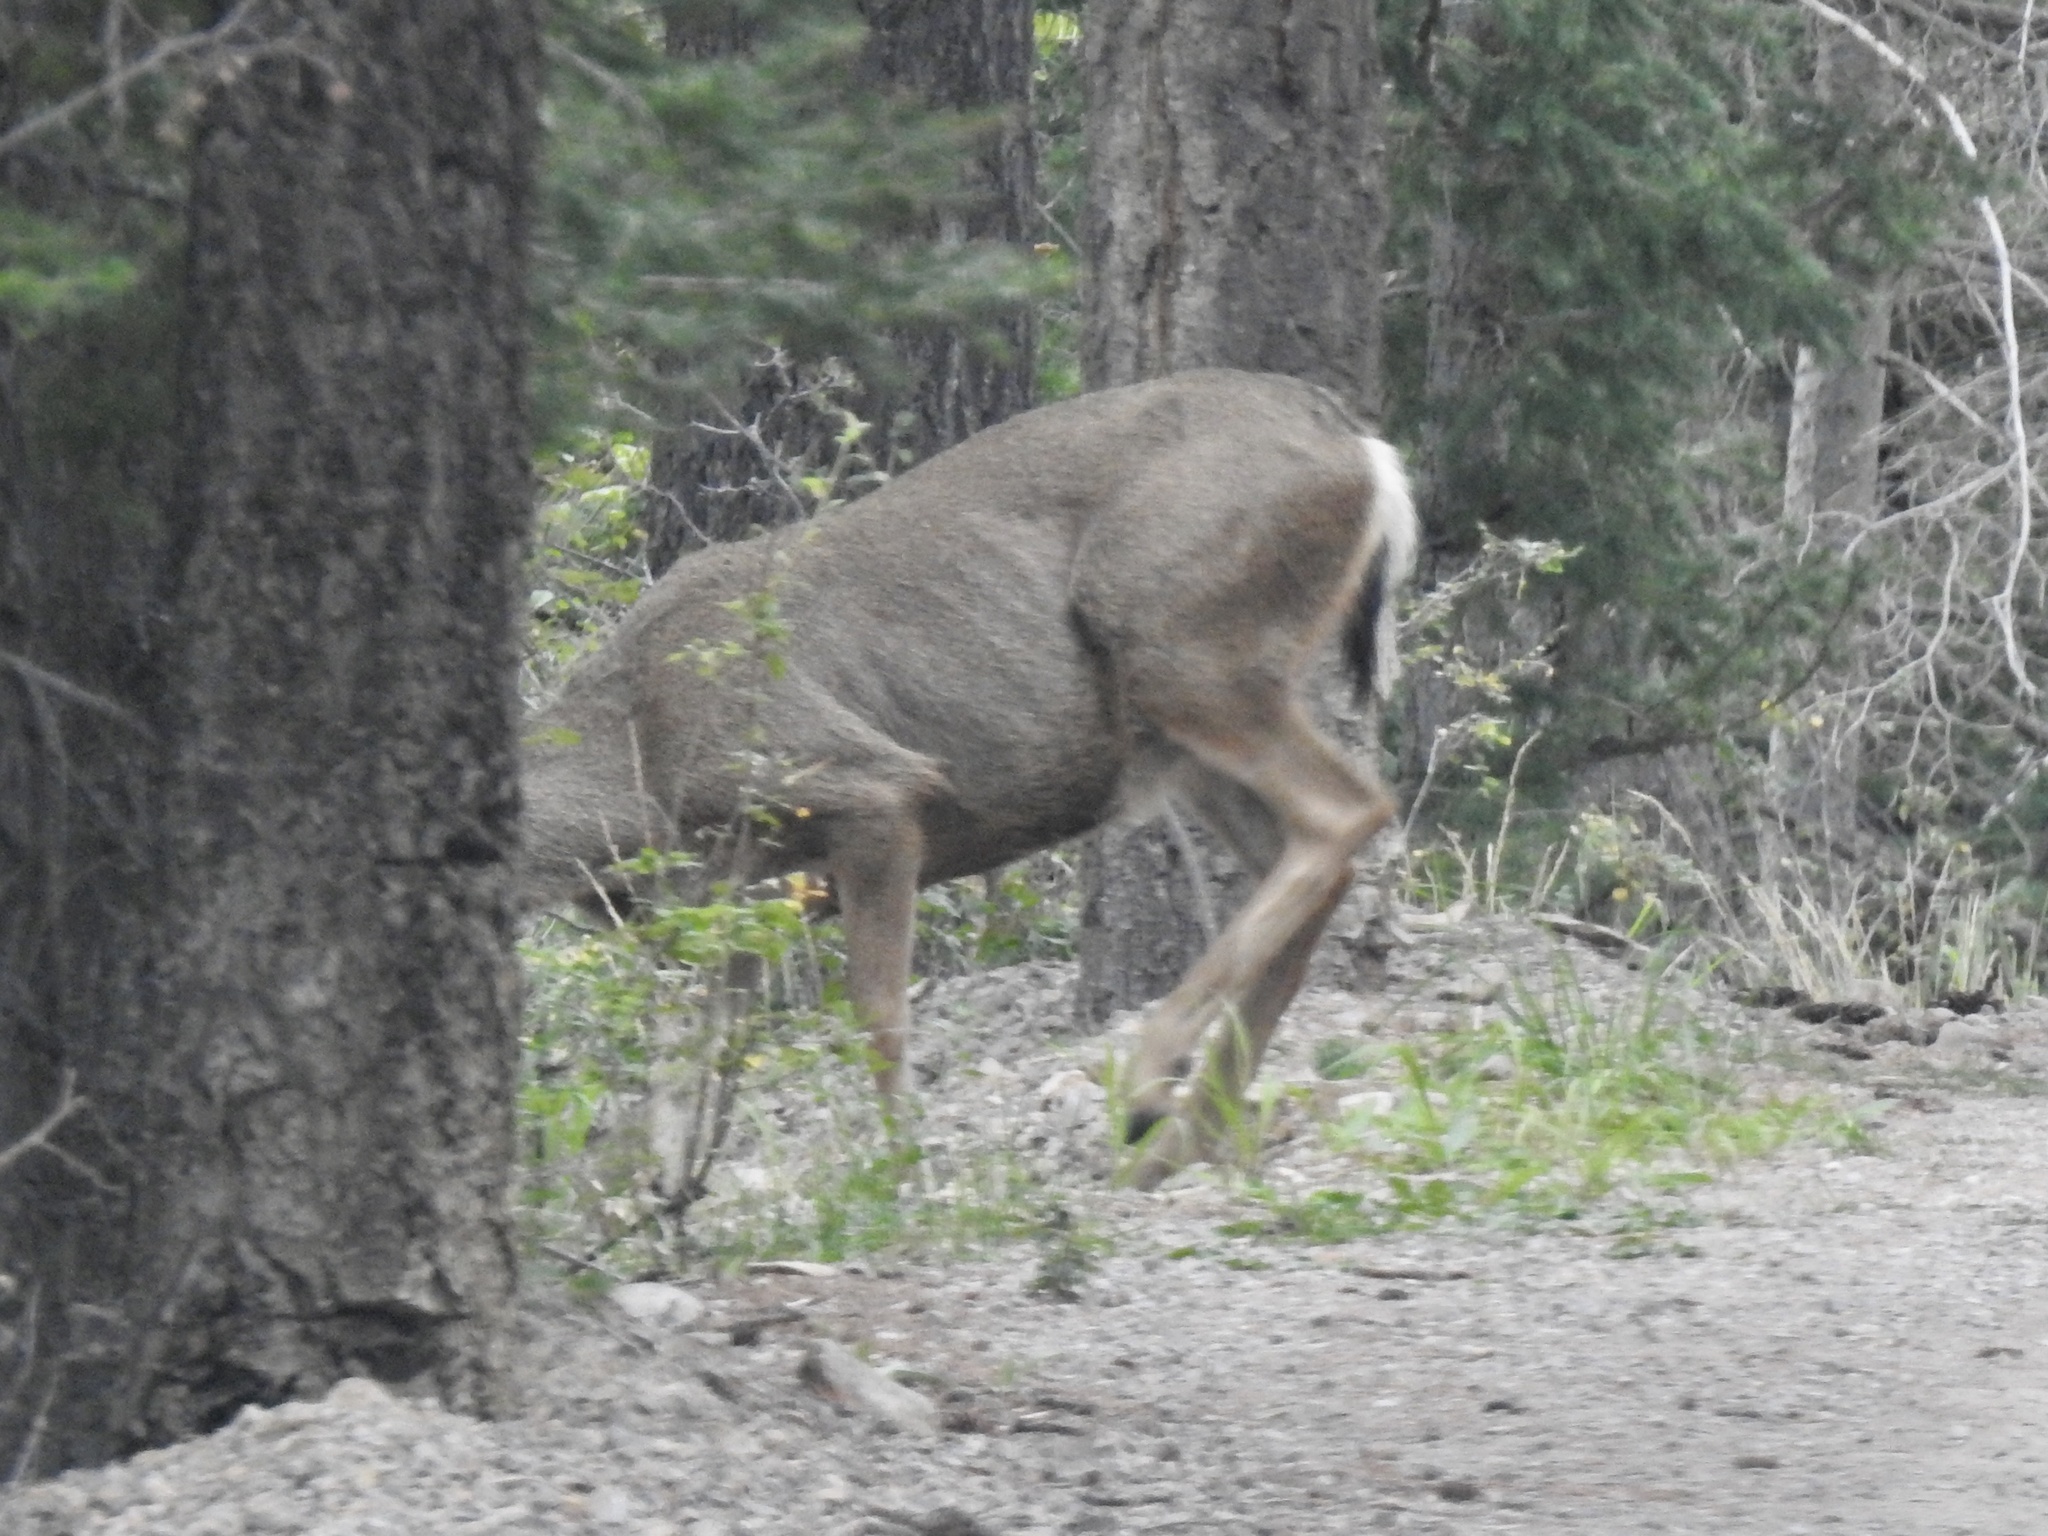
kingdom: Animalia
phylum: Chordata
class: Mammalia
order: Artiodactyla
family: Cervidae
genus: Odocoileus
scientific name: Odocoileus hemionus
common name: Mule deer
